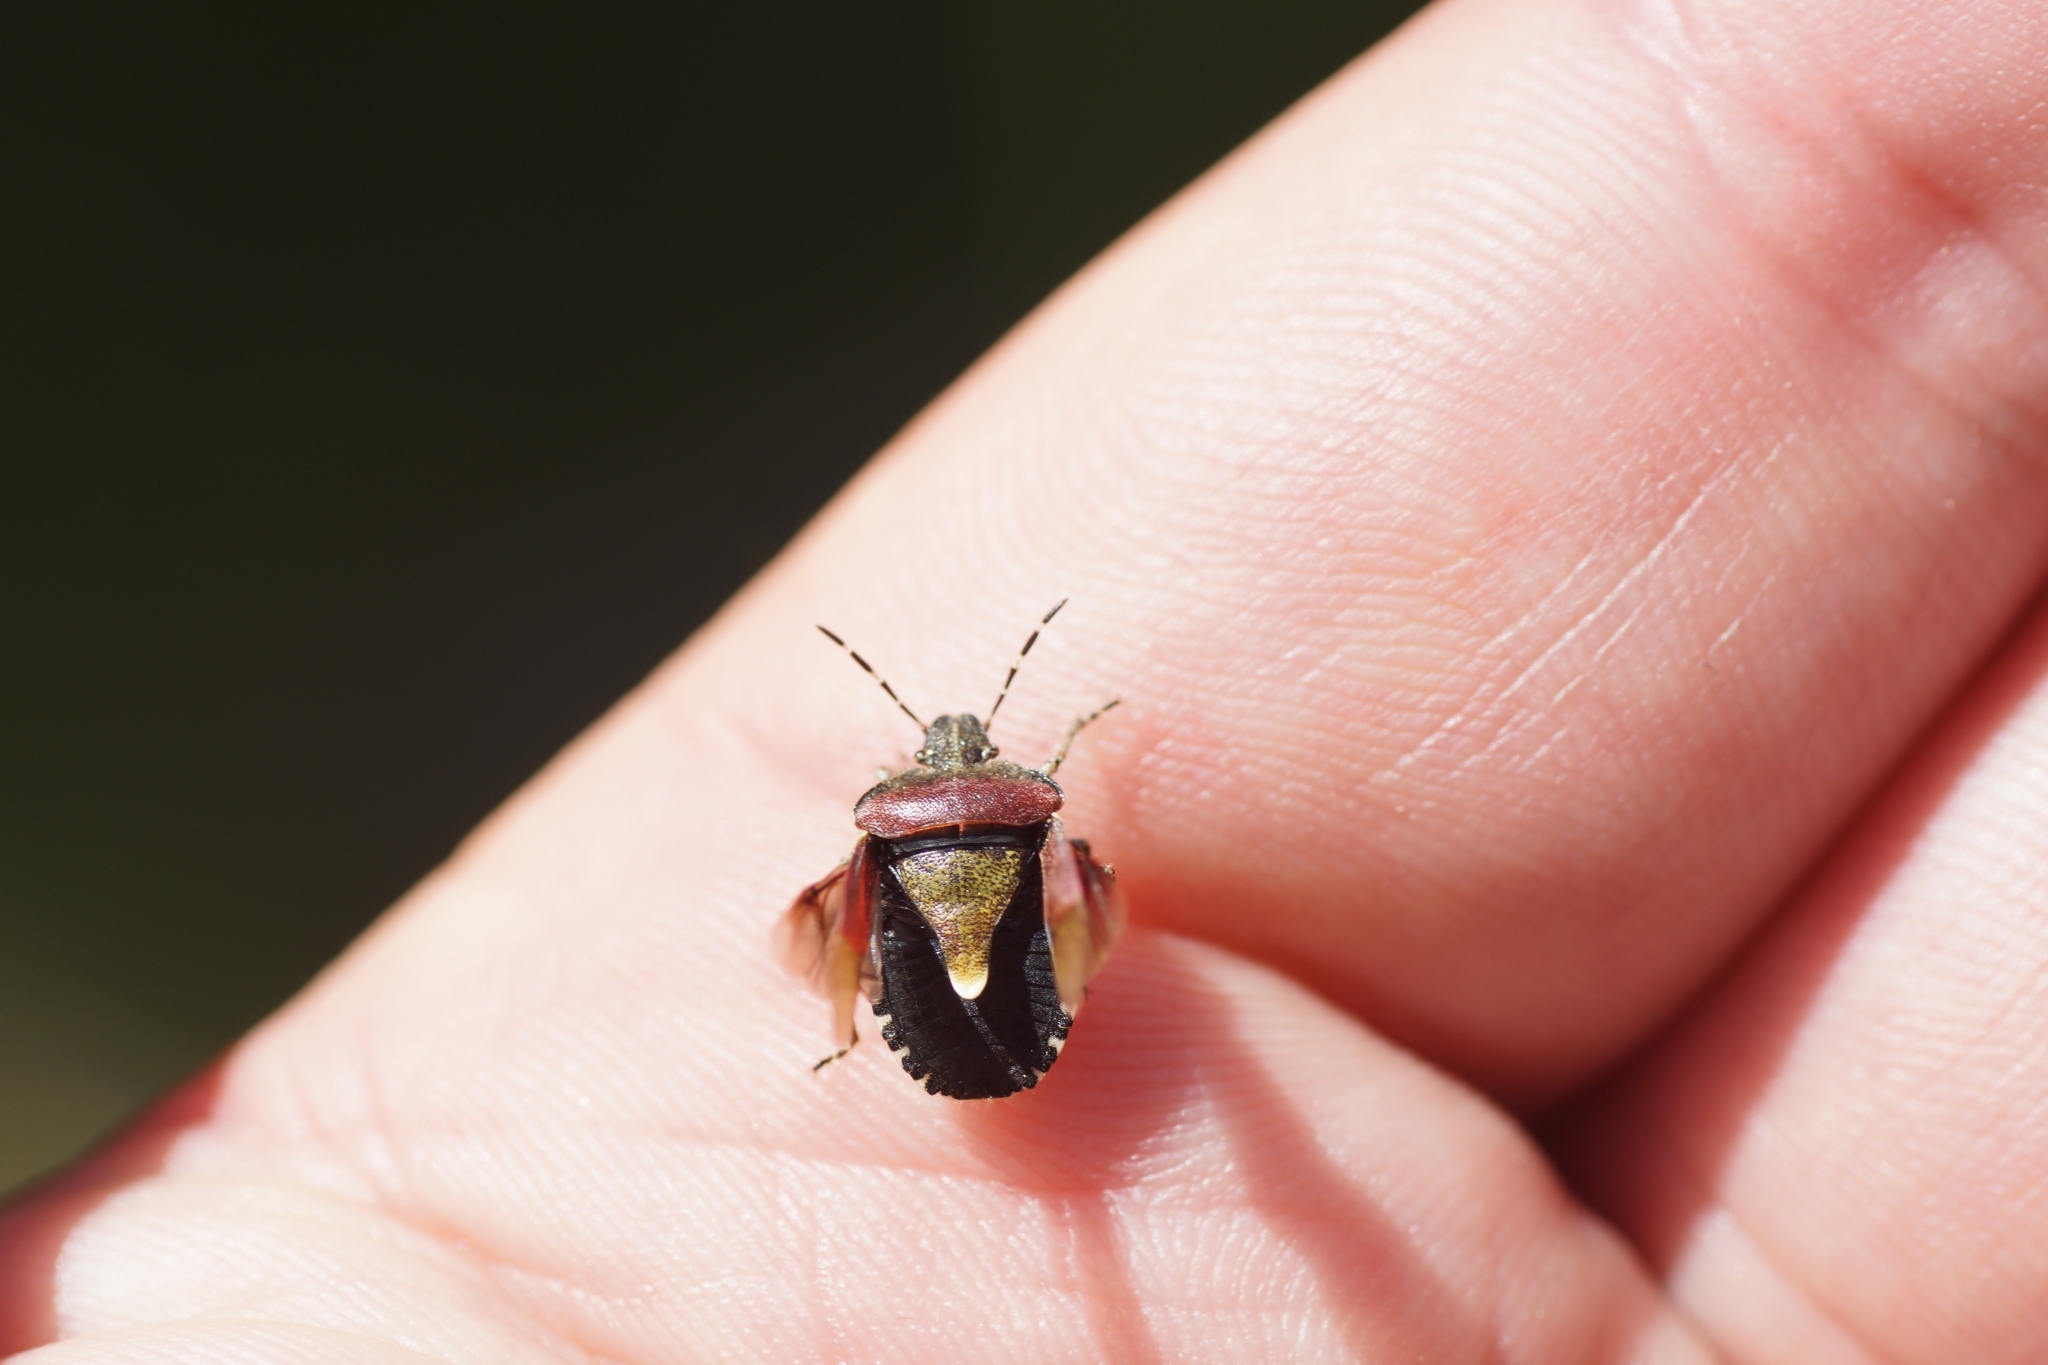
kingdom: Animalia
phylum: Arthropoda
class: Insecta
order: Hemiptera
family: Pentatomidae
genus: Dolycoris
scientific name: Dolycoris baccarum
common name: Sloe bug
